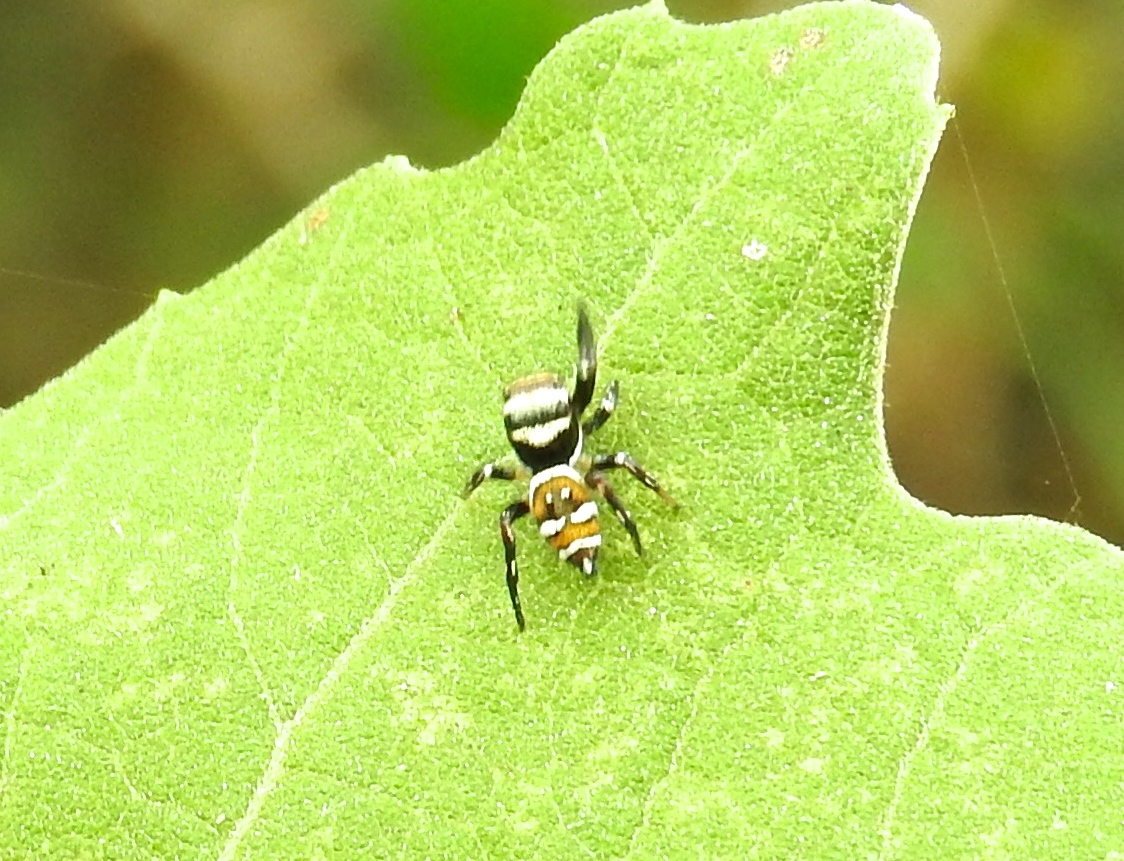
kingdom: Animalia
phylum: Arthropoda
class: Arachnida
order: Araneae
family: Salticidae
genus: Sassacus
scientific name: Sassacus
